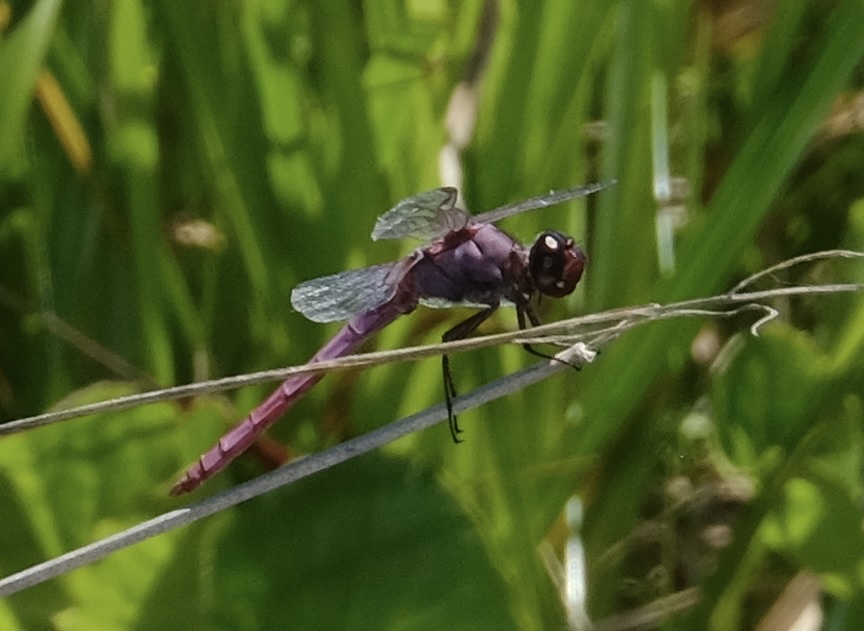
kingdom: Animalia
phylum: Arthropoda
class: Insecta
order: Odonata
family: Libellulidae
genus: Orthemis
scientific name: Orthemis ferruginea
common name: Roseate skimmer
